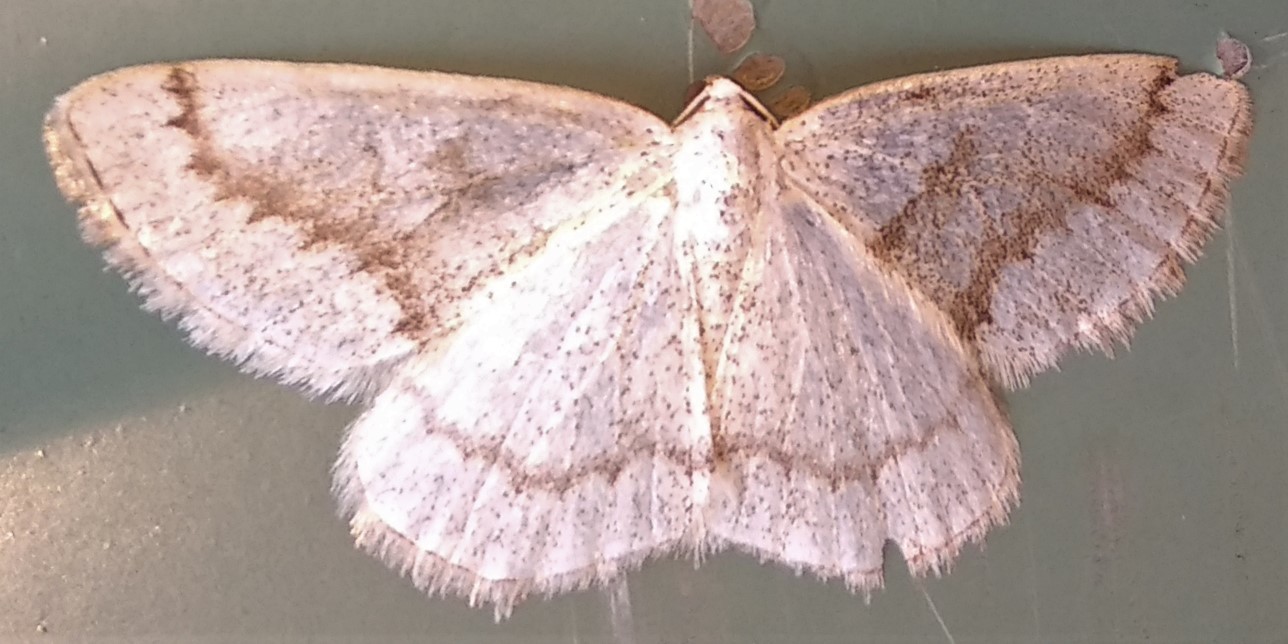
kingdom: Animalia
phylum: Arthropoda
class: Insecta
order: Lepidoptera
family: Geometridae
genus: Lomographa
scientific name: Lomographa glomeraria
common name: Gray spring moth
